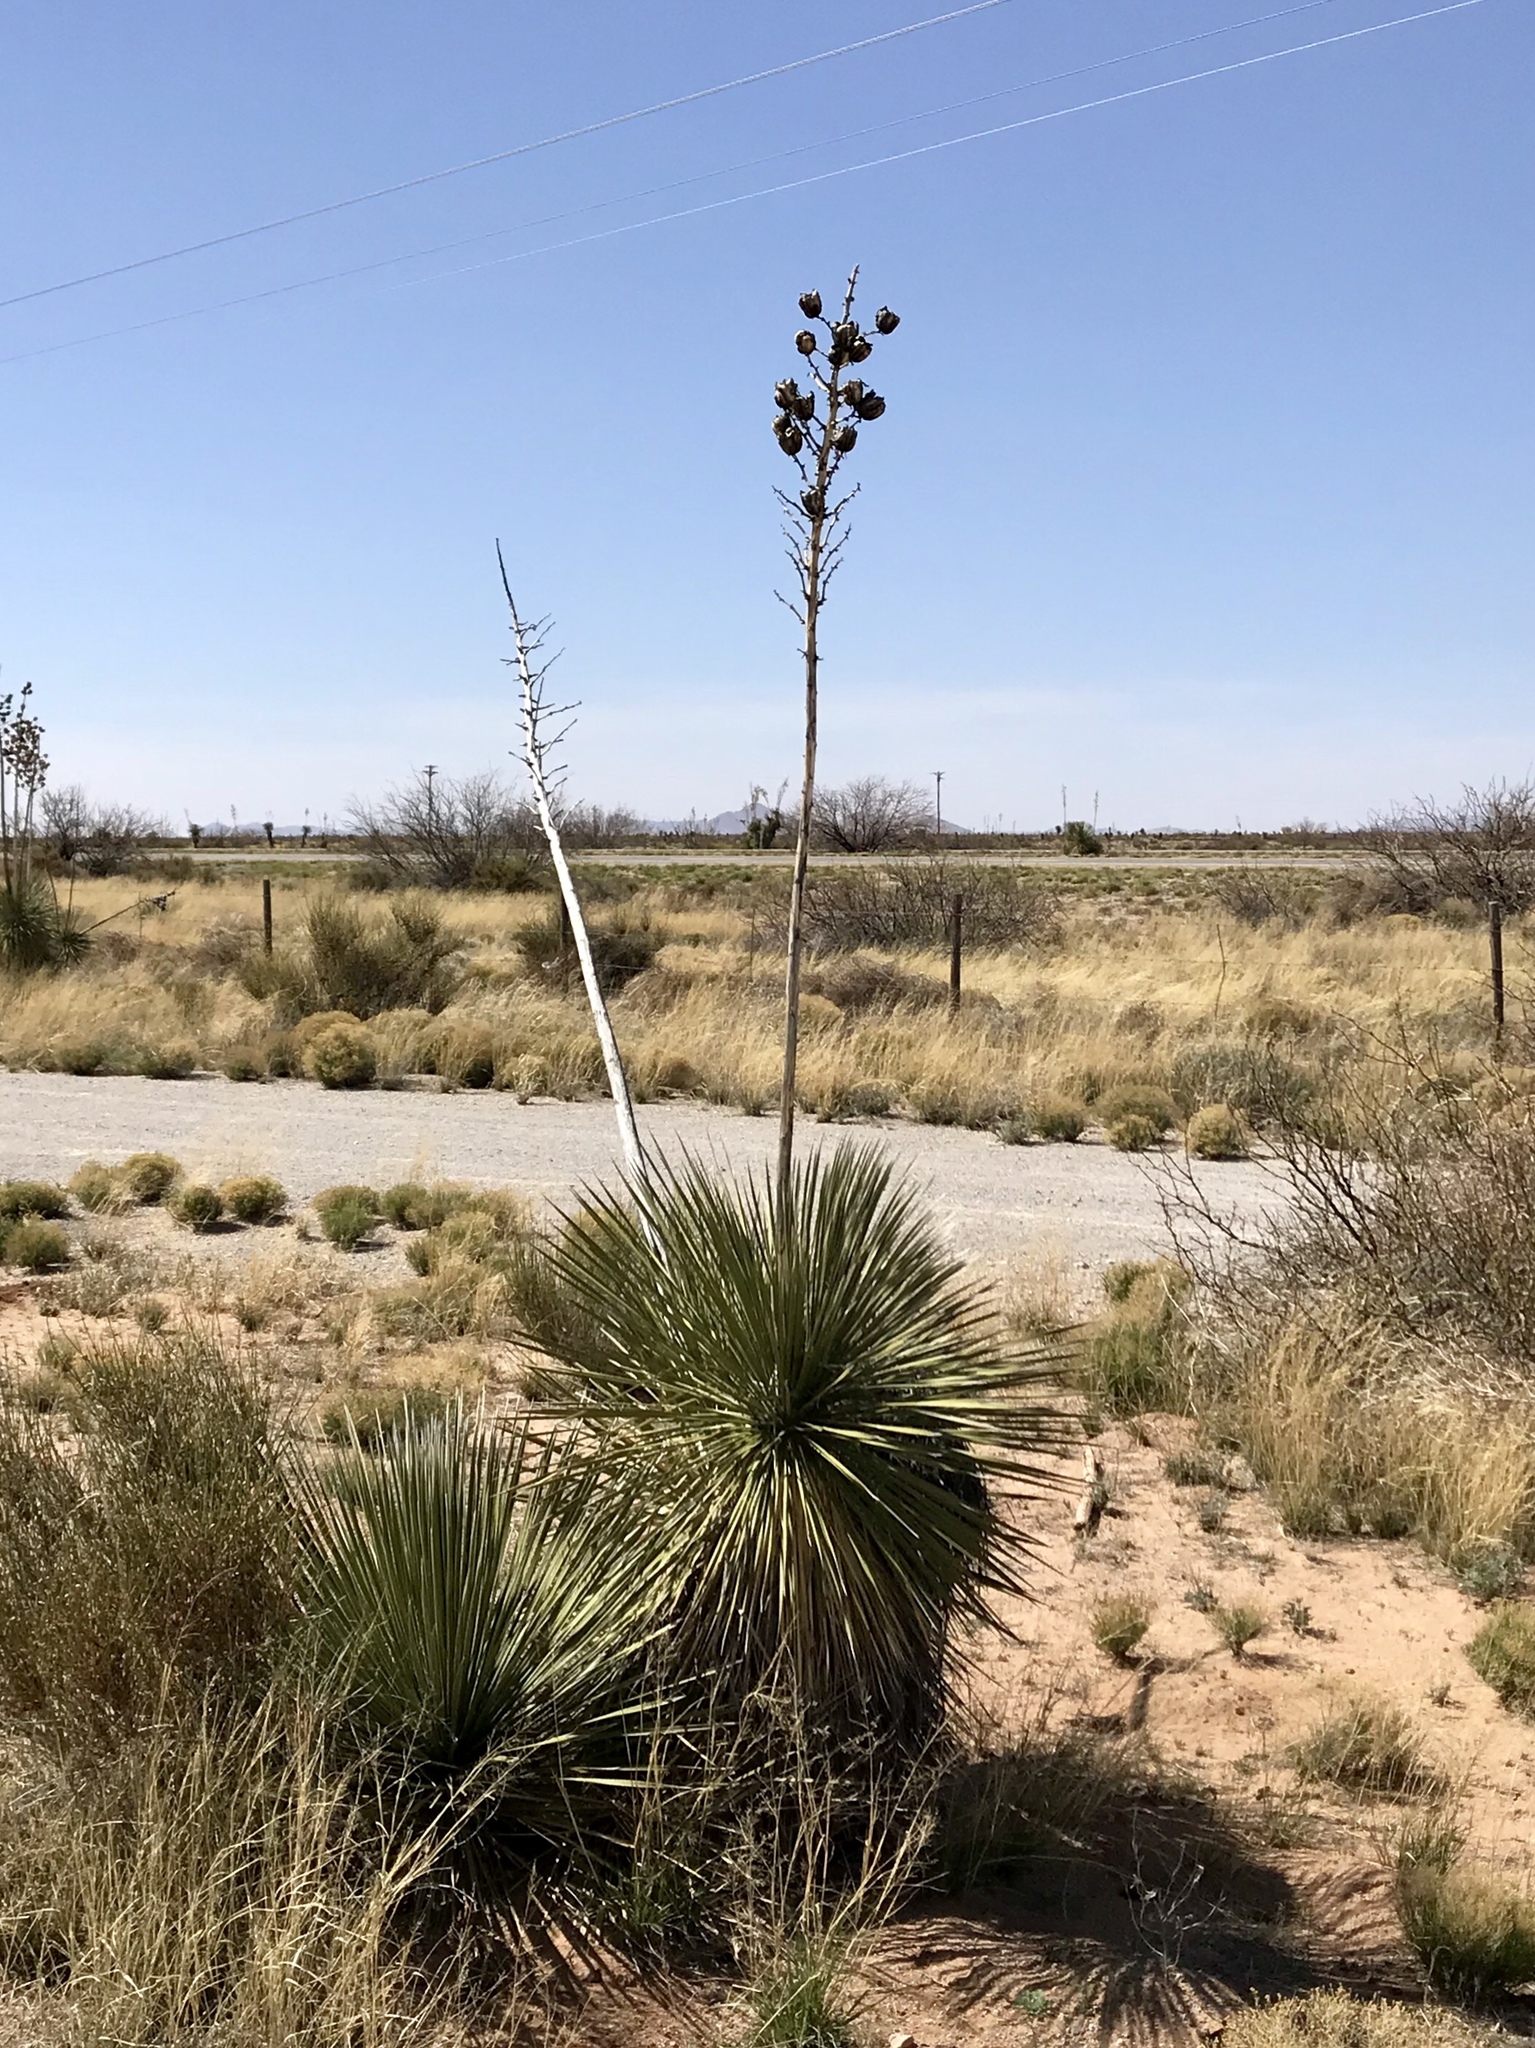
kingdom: Plantae
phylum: Tracheophyta
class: Liliopsida
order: Asparagales
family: Asparagaceae
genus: Yucca
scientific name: Yucca elata
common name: Palmella
